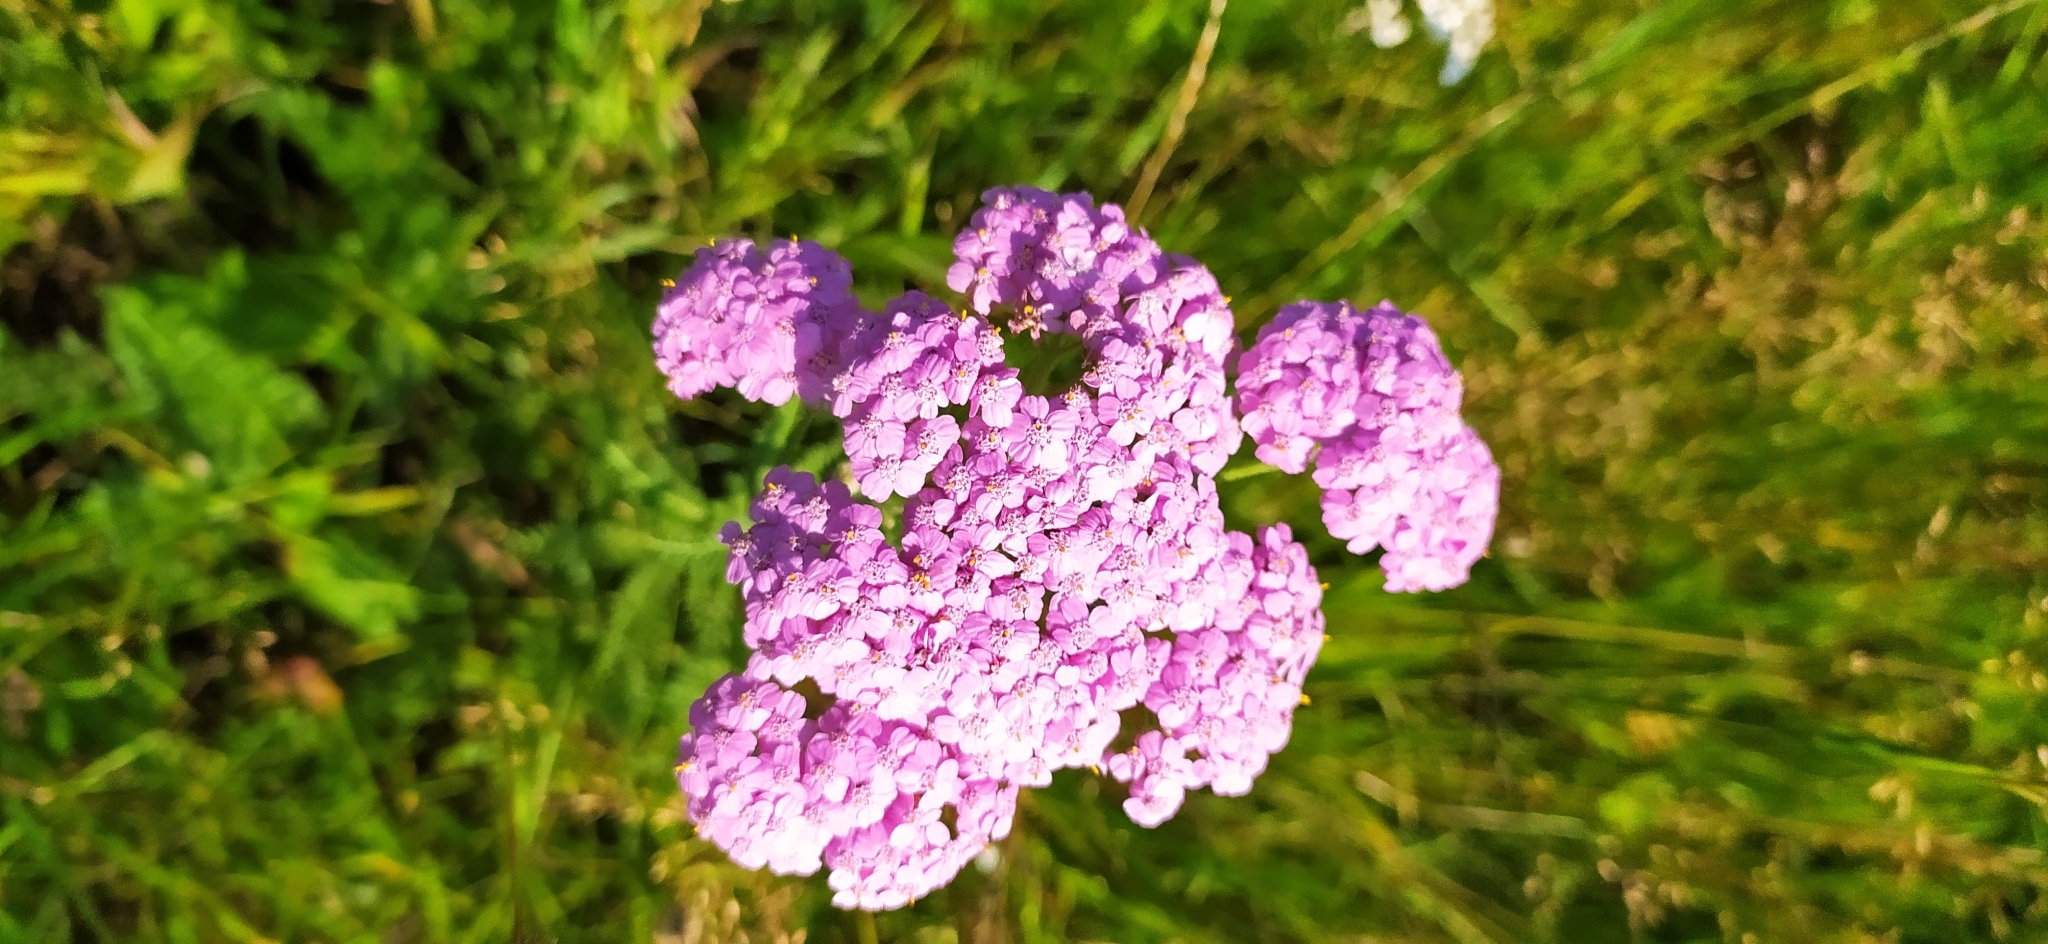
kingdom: Plantae
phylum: Tracheophyta
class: Magnoliopsida
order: Asterales
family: Asteraceae
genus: Achillea
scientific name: Achillea asiatica
